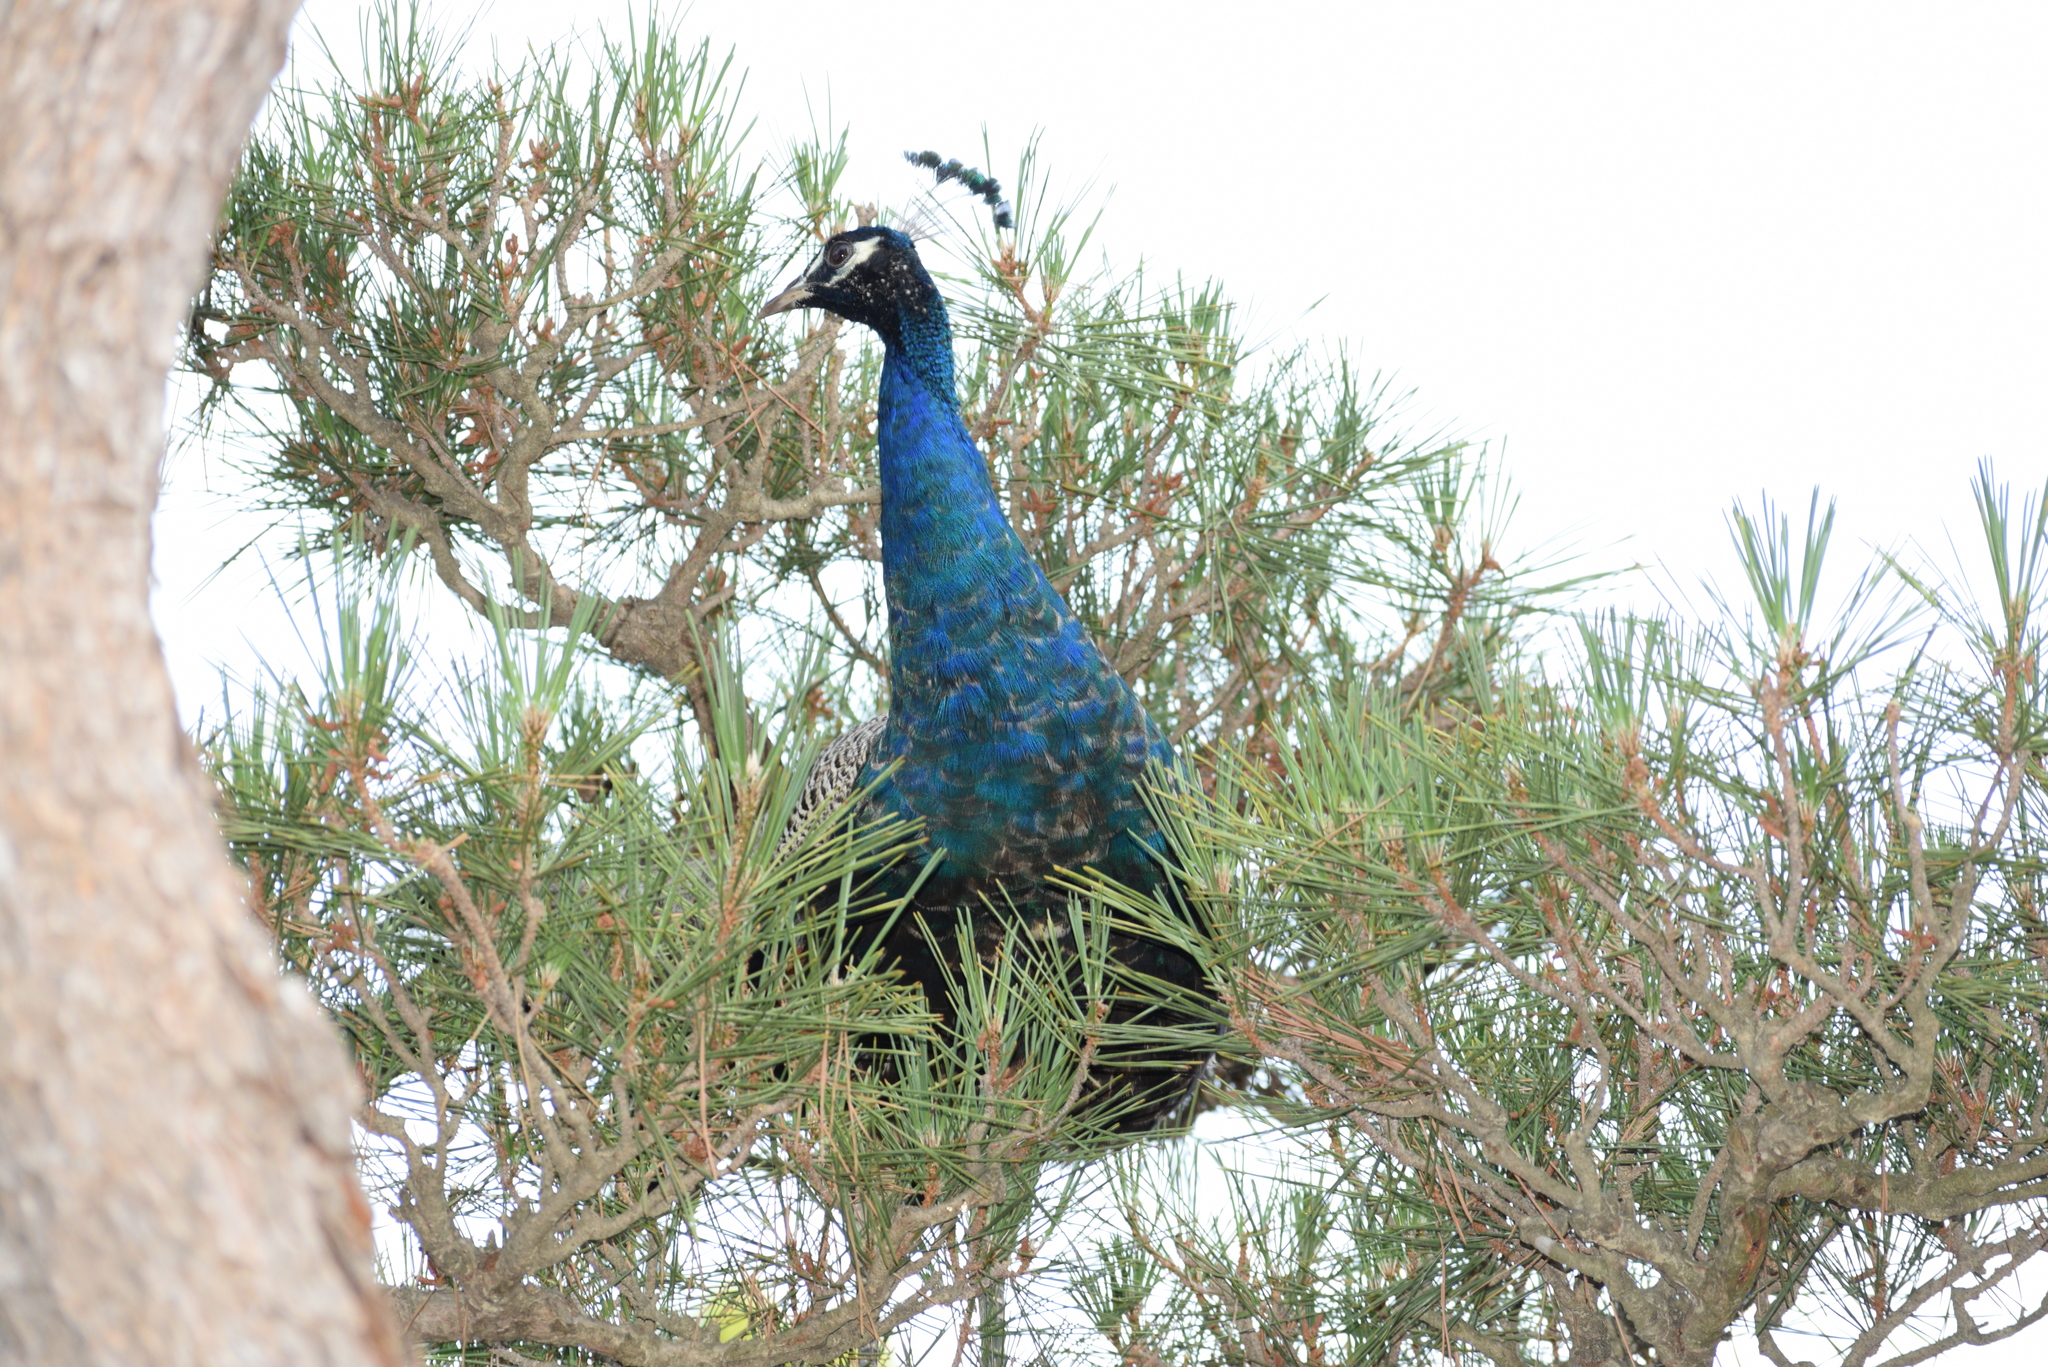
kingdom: Animalia
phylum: Chordata
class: Aves
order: Galliformes
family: Phasianidae
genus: Pavo
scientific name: Pavo cristatus
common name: Indian peafowl
